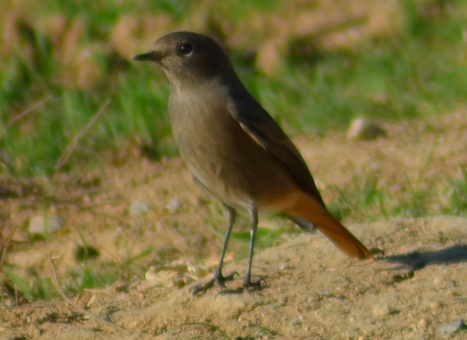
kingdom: Animalia
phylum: Chordata
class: Aves
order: Passeriformes
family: Muscicapidae
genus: Phoenicurus
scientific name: Phoenicurus ochruros
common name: Black redstart
